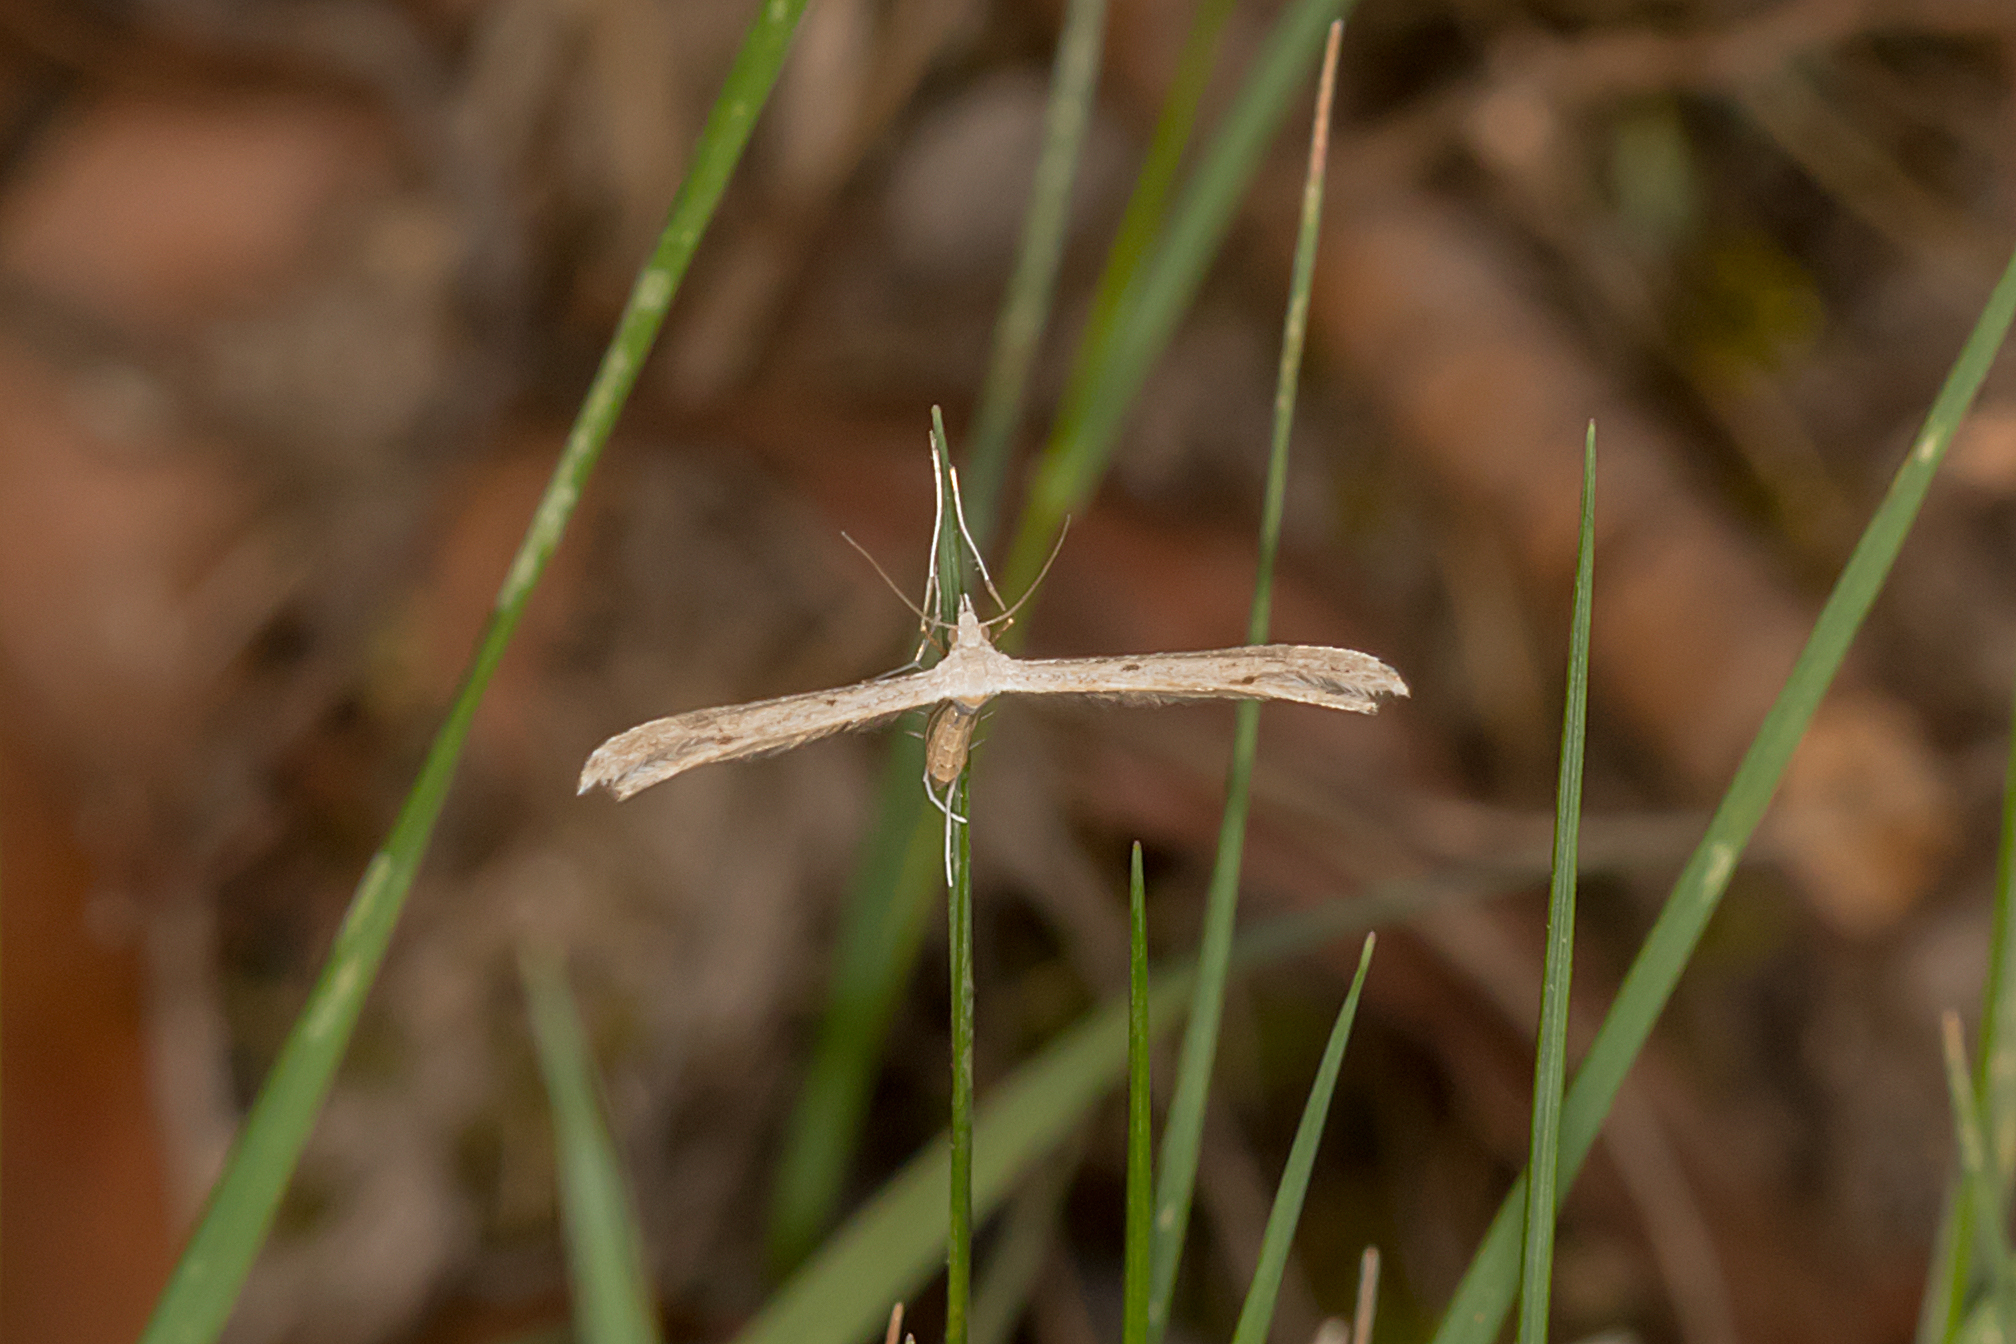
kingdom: Animalia
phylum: Arthropoda
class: Insecta
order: Lepidoptera
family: Pterophoridae
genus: Stenoptilia
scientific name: Stenoptilia zophodactylus
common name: Dowdy plume
